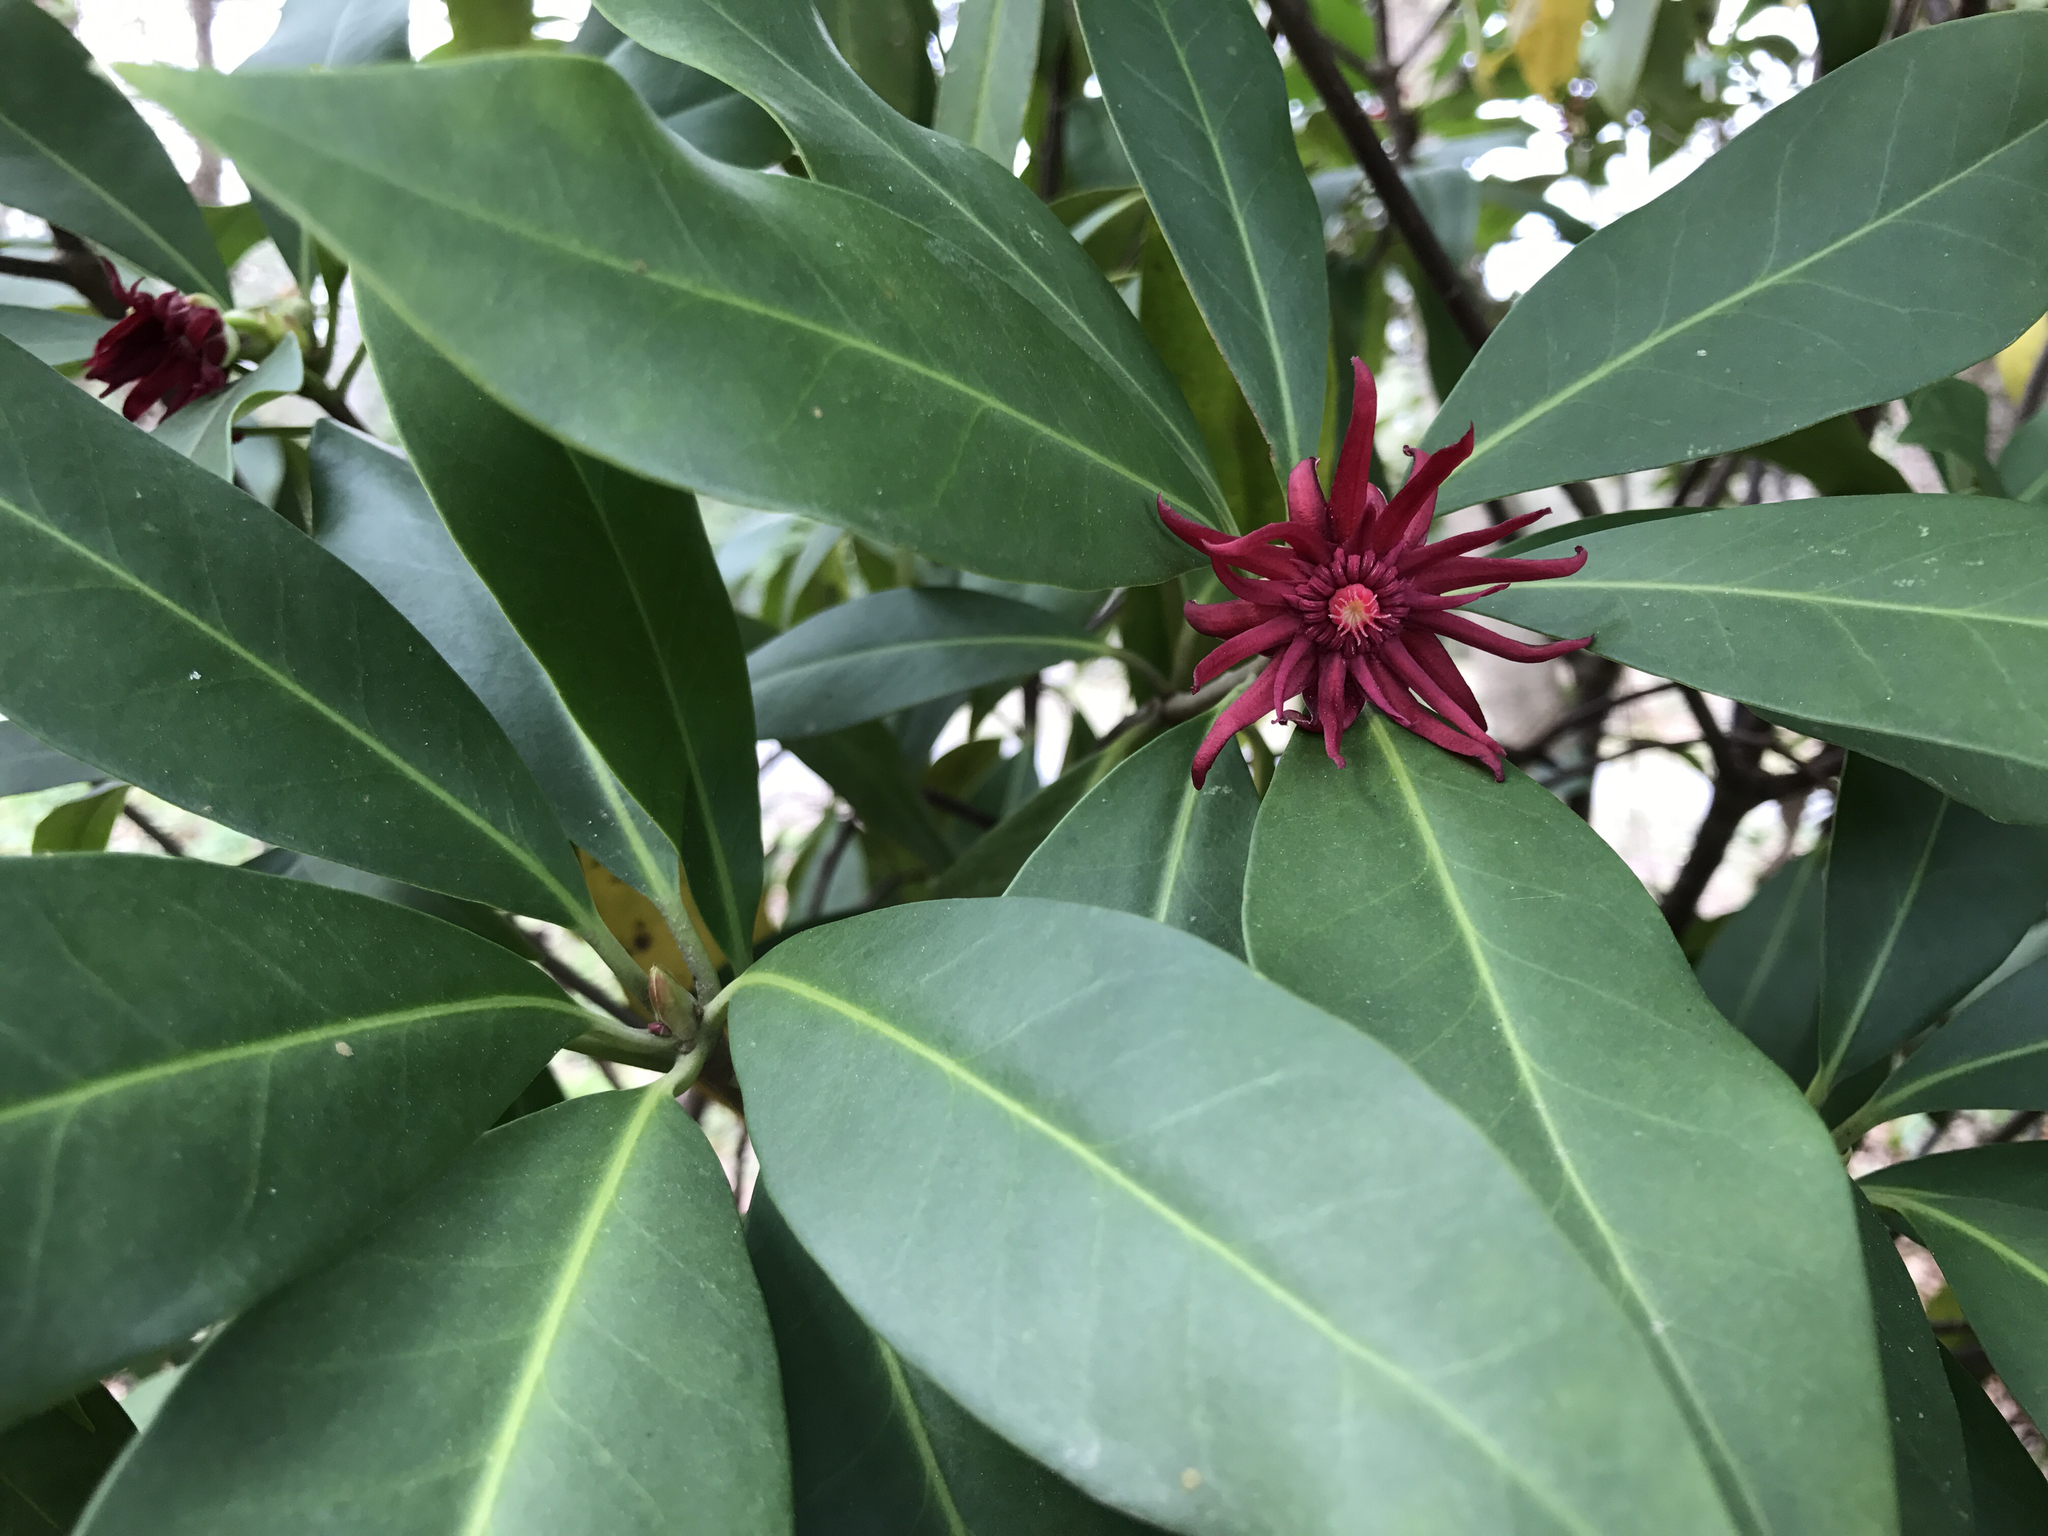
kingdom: Plantae
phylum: Tracheophyta
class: Magnoliopsida
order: Austrobaileyales
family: Schisandraceae
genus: Illicium
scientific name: Illicium floridanum
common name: Florida anisetree
